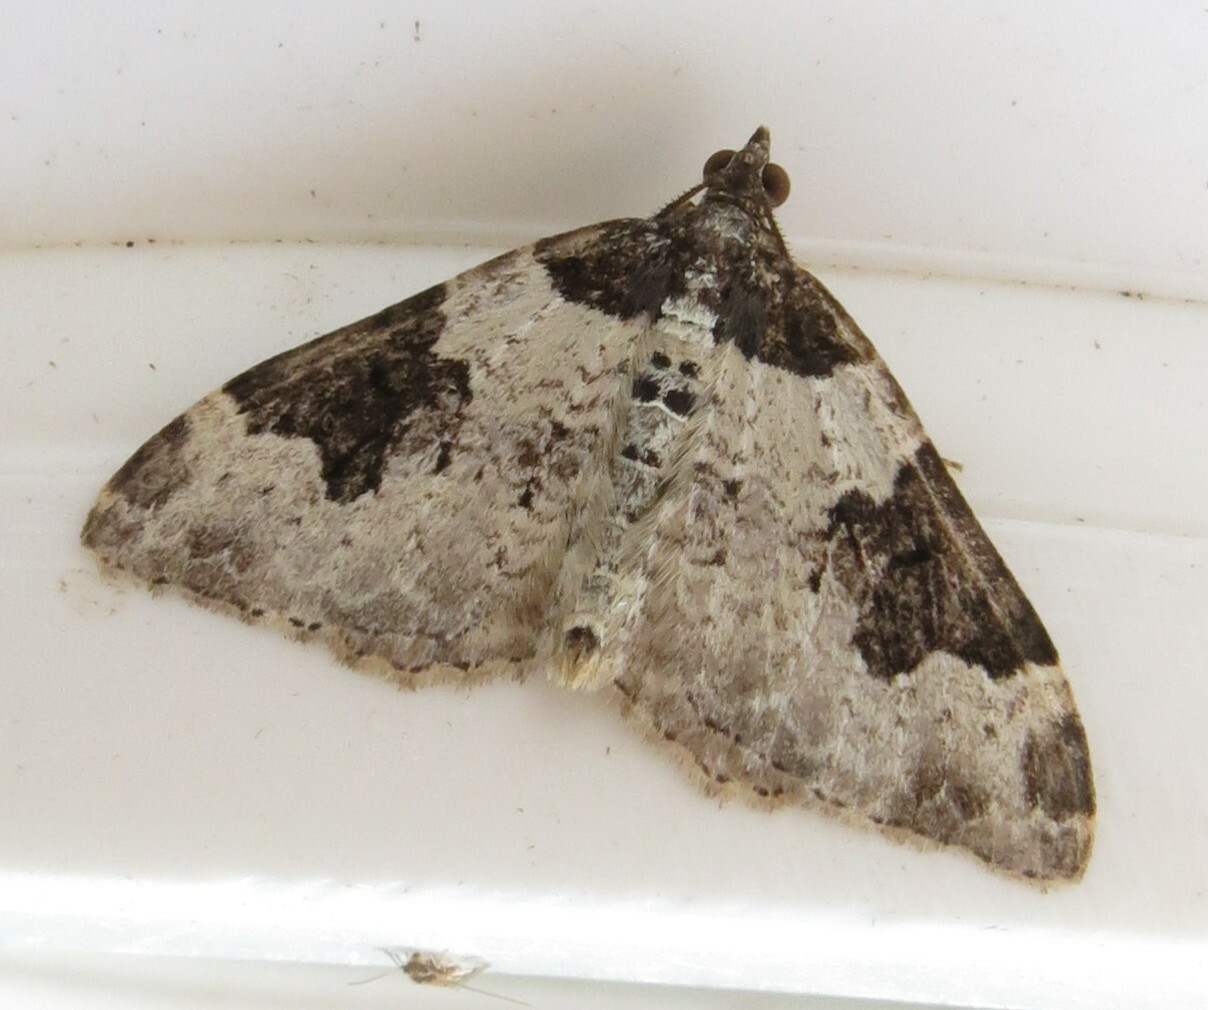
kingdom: Animalia
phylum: Arthropoda
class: Insecta
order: Lepidoptera
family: Geometridae
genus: Xanthorhoe
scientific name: Xanthorhoe fluctuata
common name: Garden carpet
